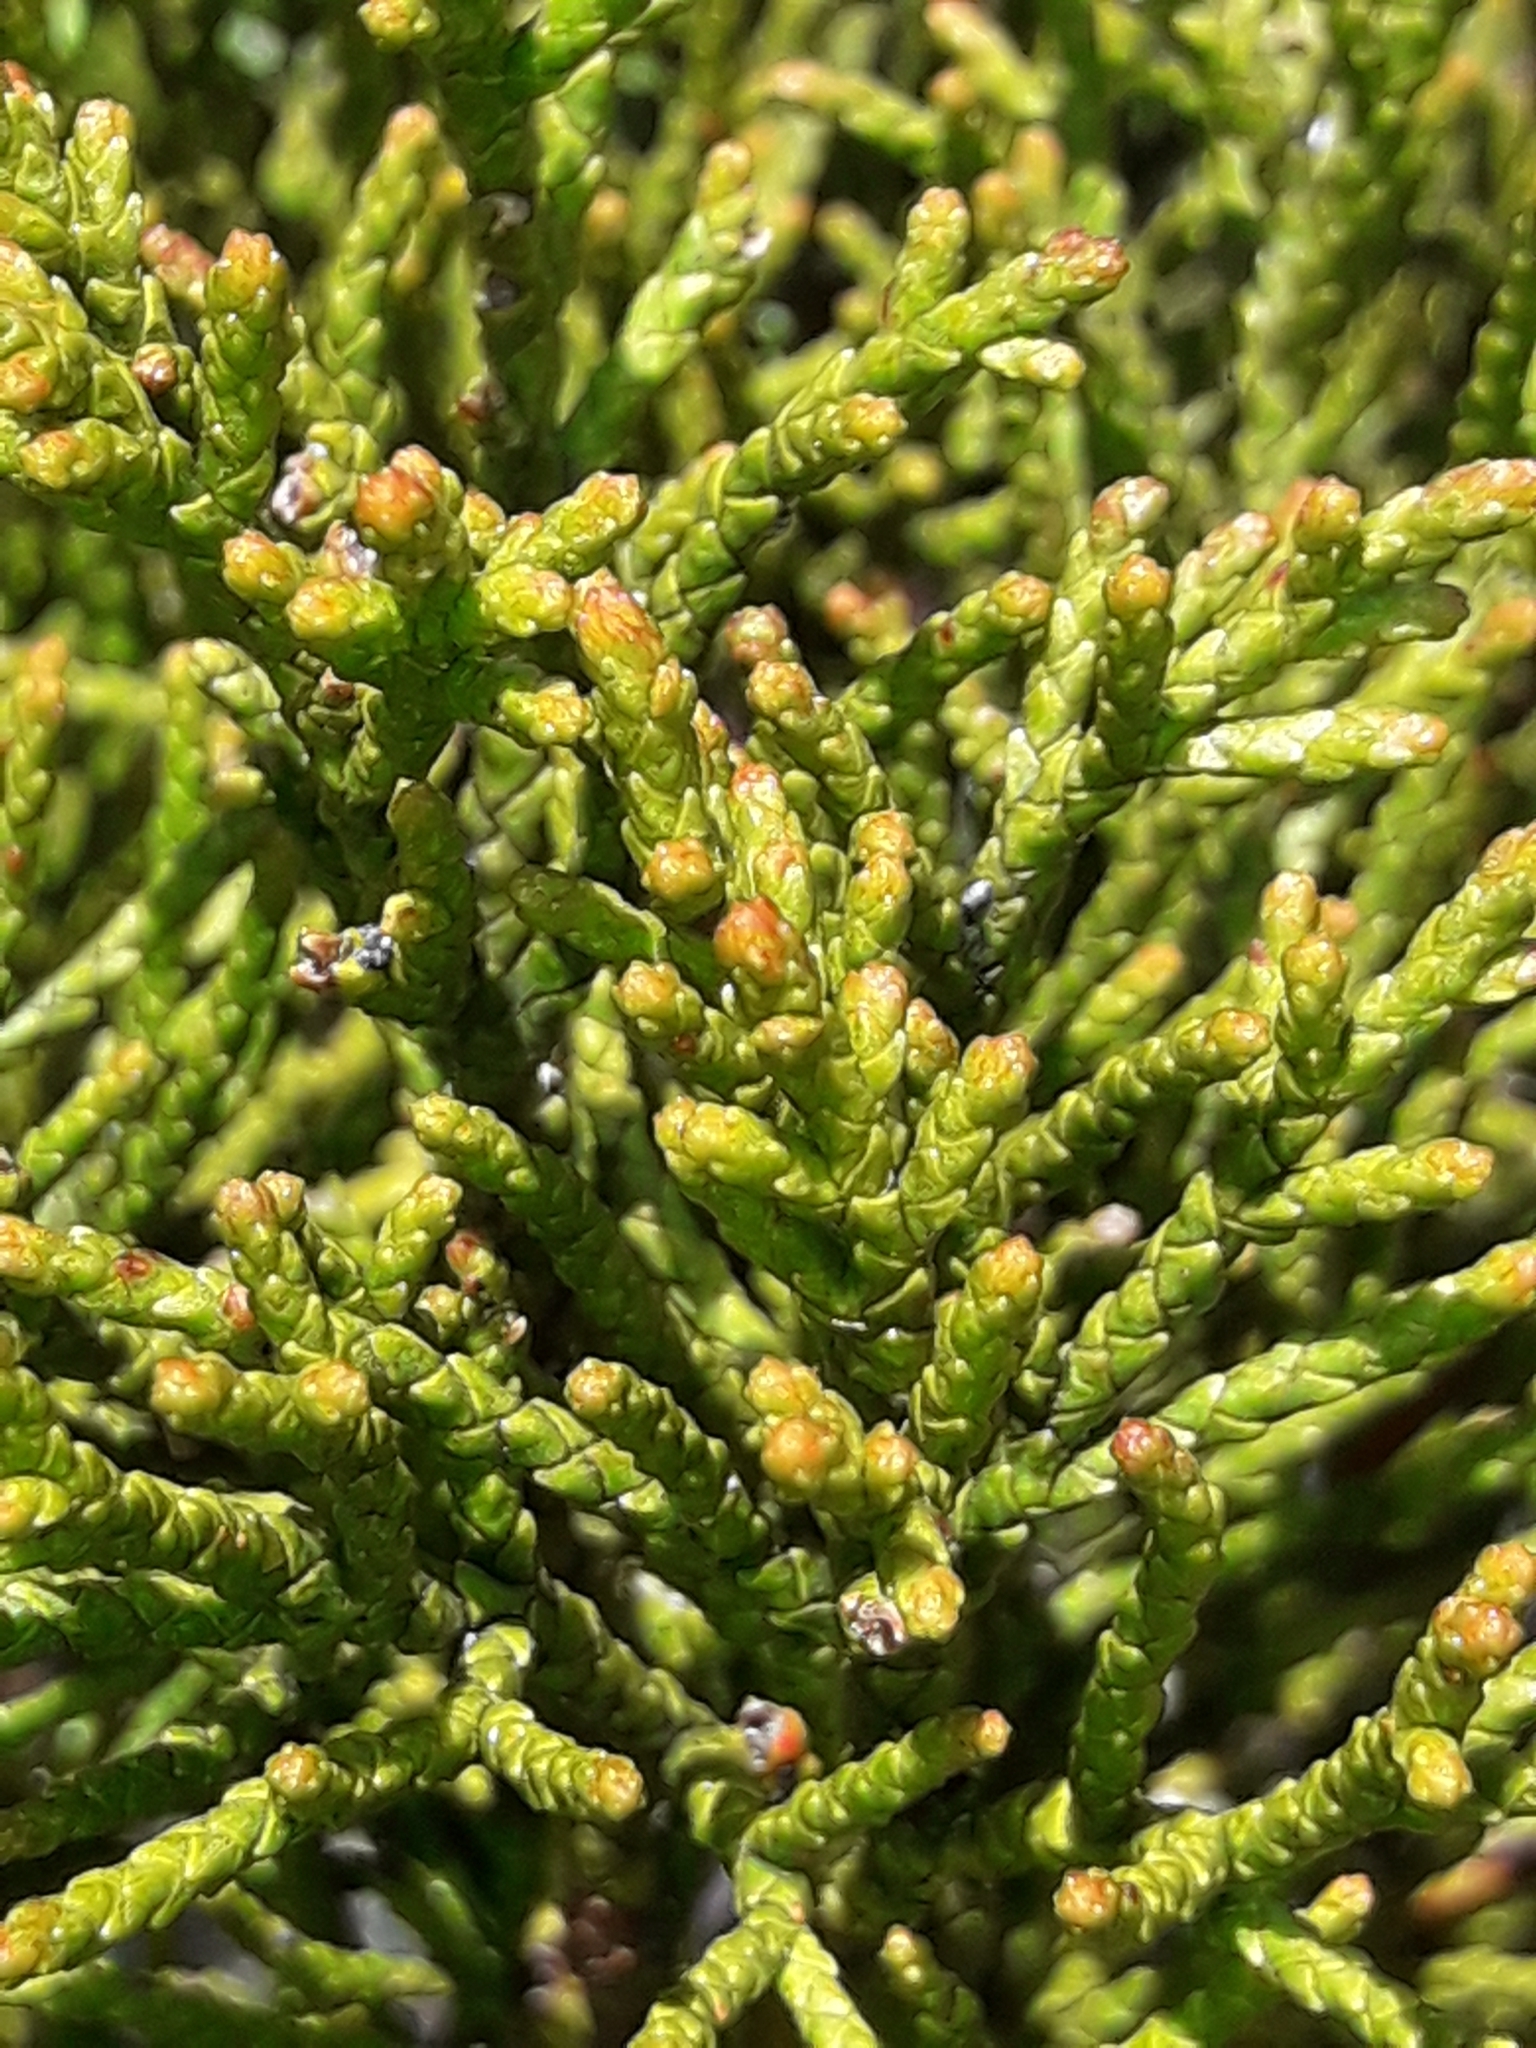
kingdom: Plantae
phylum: Tracheophyta
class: Pinopsida
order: Pinales
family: Podocarpaceae
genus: Halocarpus
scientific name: Halocarpus bidwillii
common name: Bog pine
